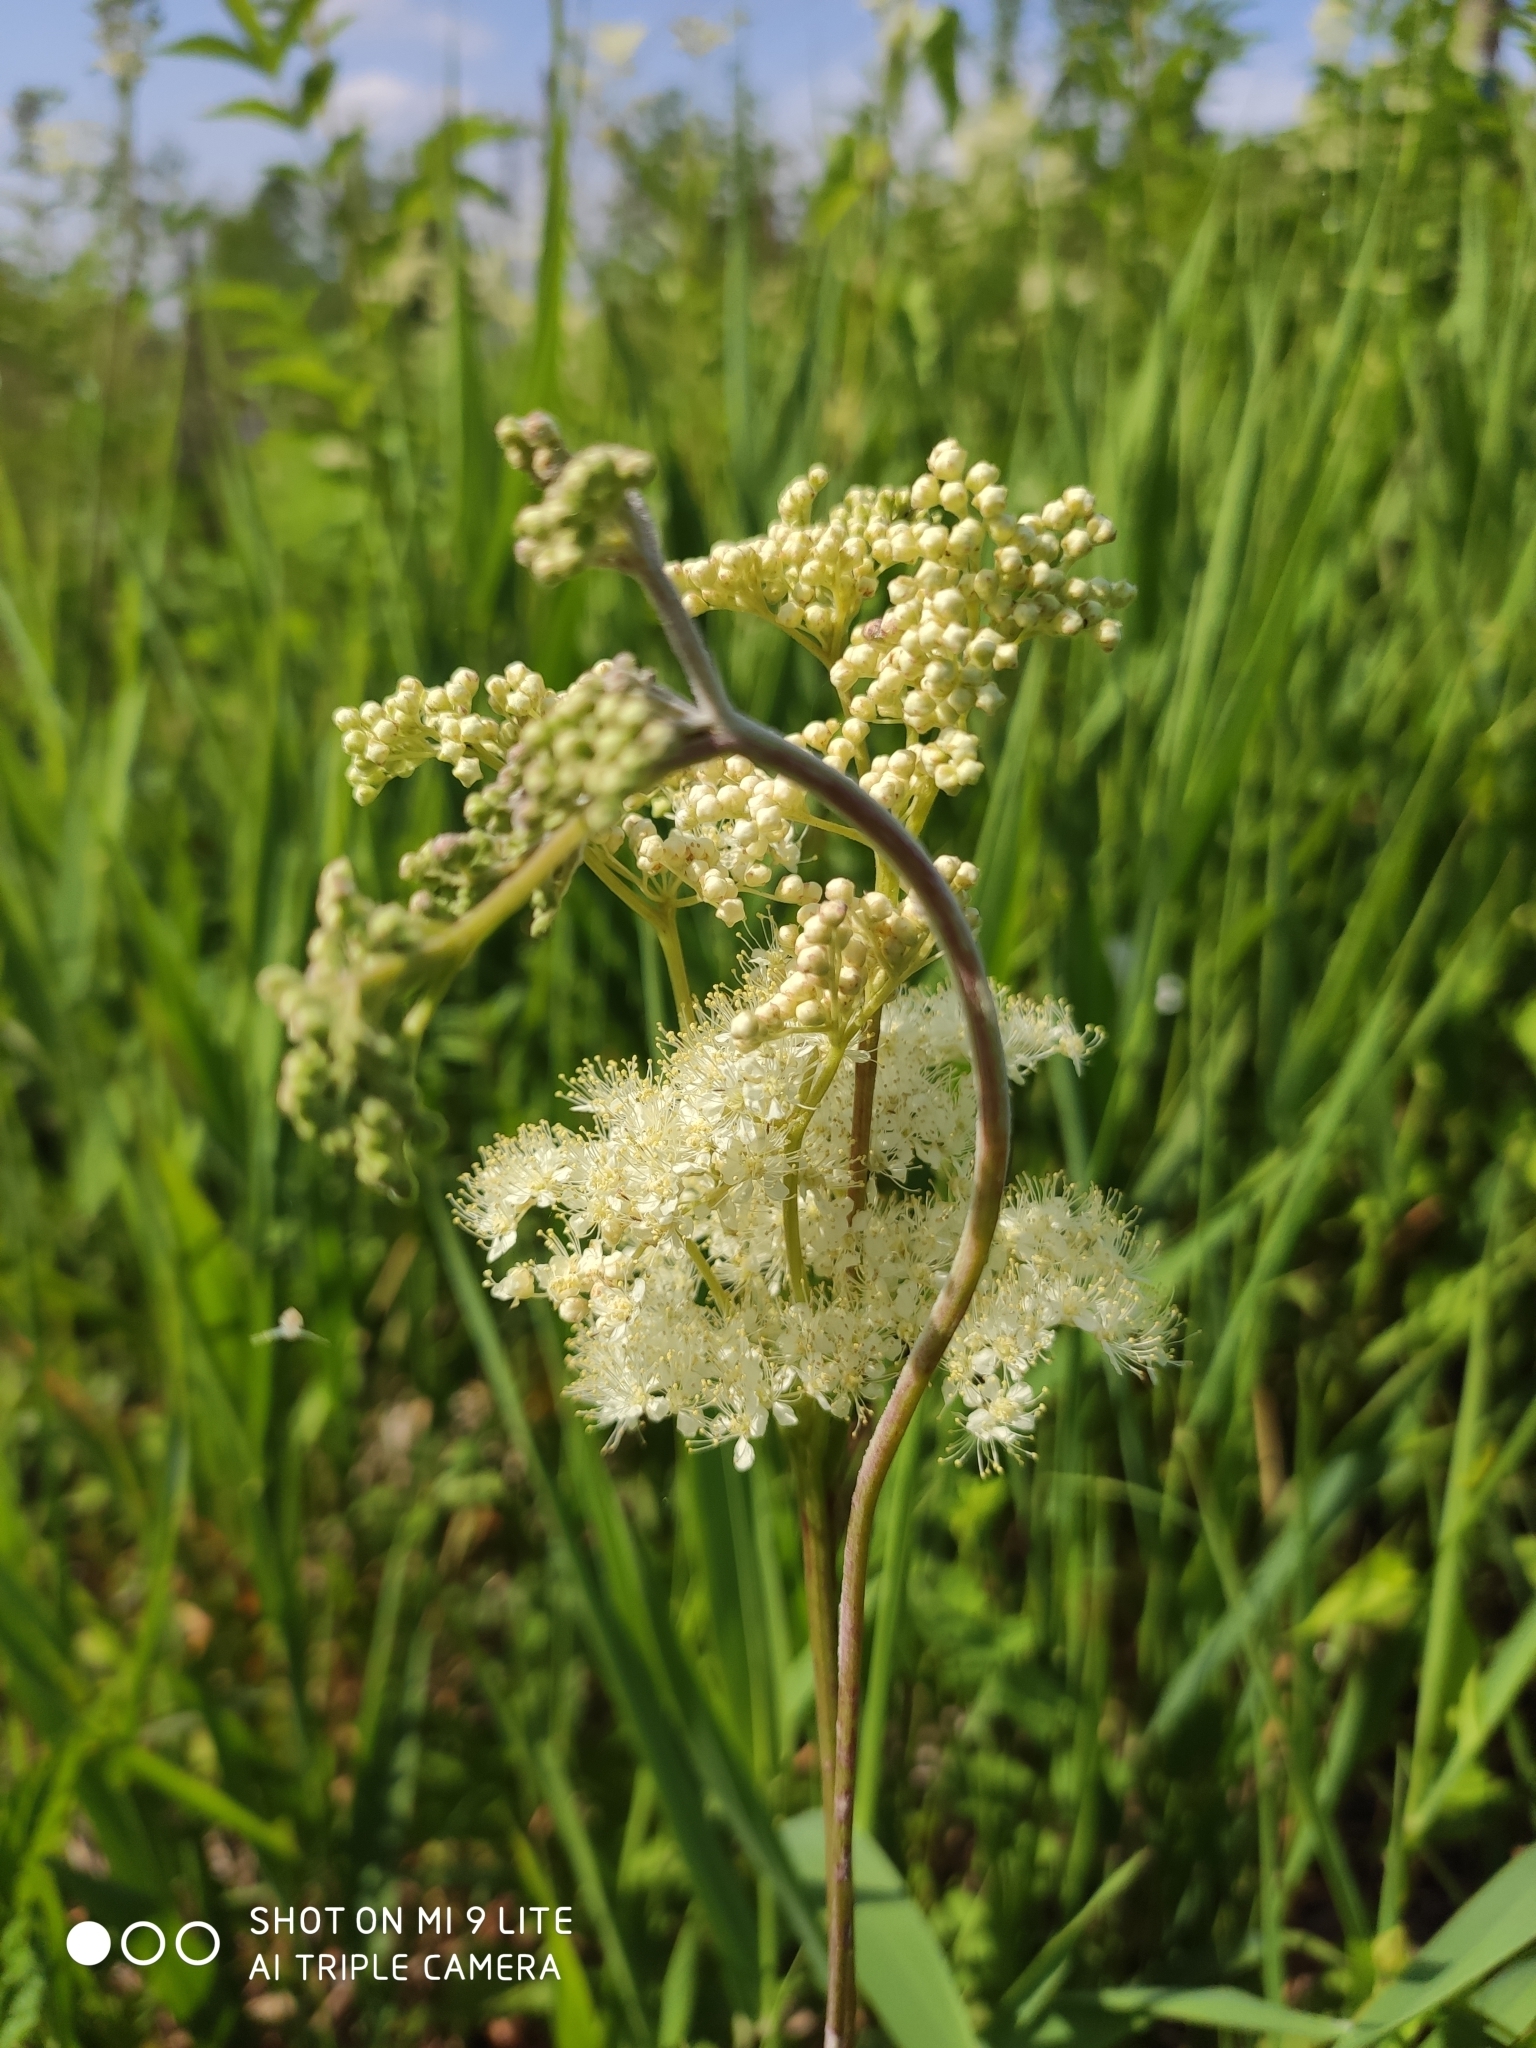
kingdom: Plantae
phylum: Tracheophyta
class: Magnoliopsida
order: Rosales
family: Rosaceae
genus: Filipendula
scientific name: Filipendula ulmaria
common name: Meadowsweet
